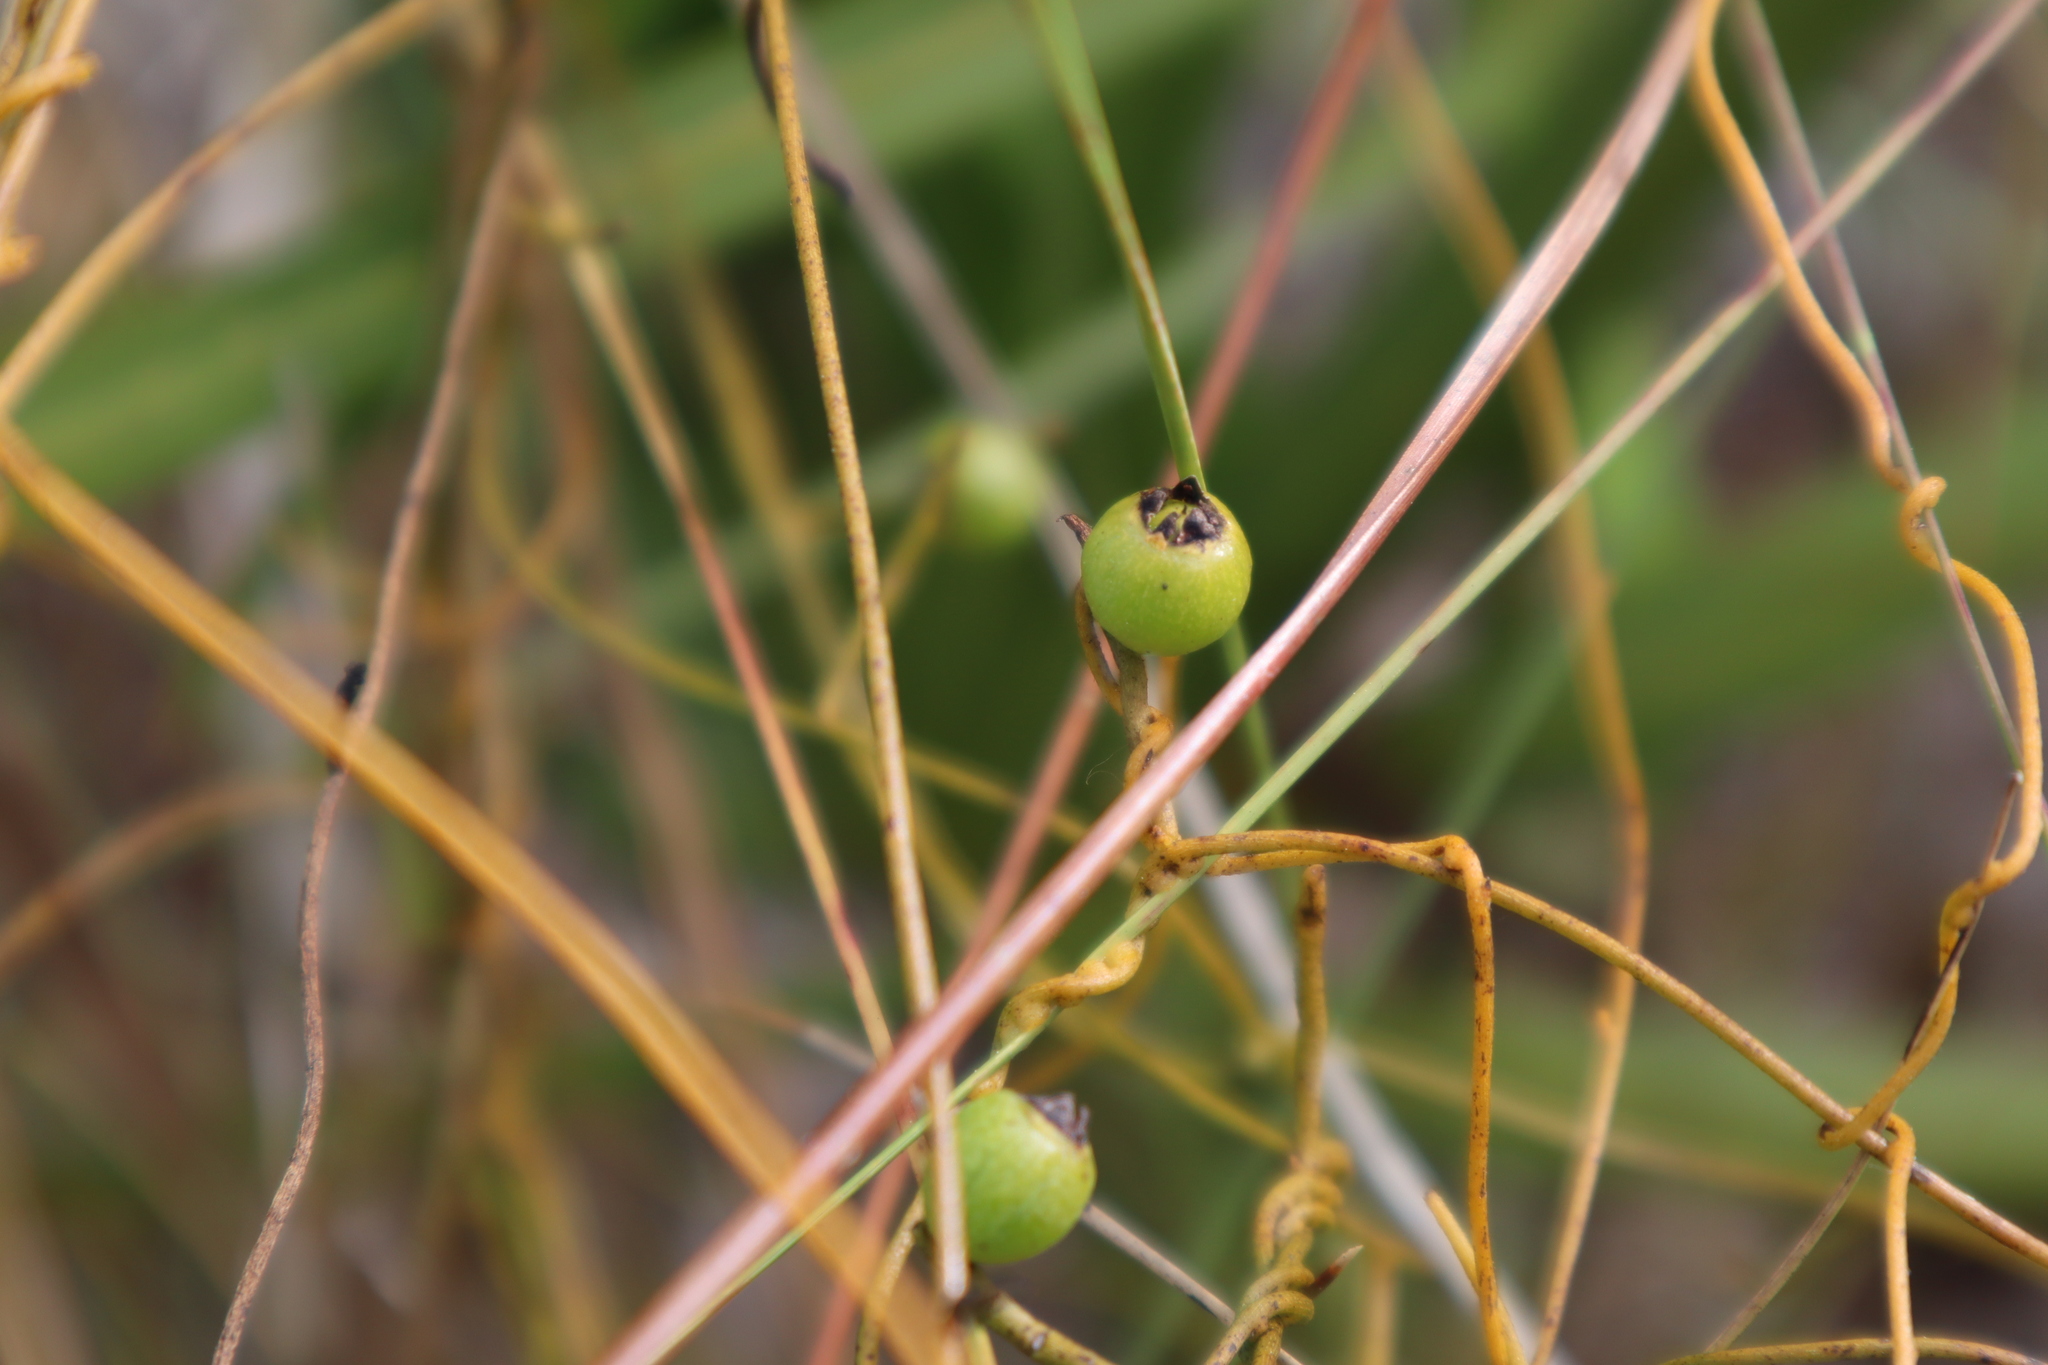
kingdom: Plantae
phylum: Tracheophyta
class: Magnoliopsida
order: Laurales
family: Lauraceae
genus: Cassytha
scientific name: Cassytha filiformis
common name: Dodder-laurel
